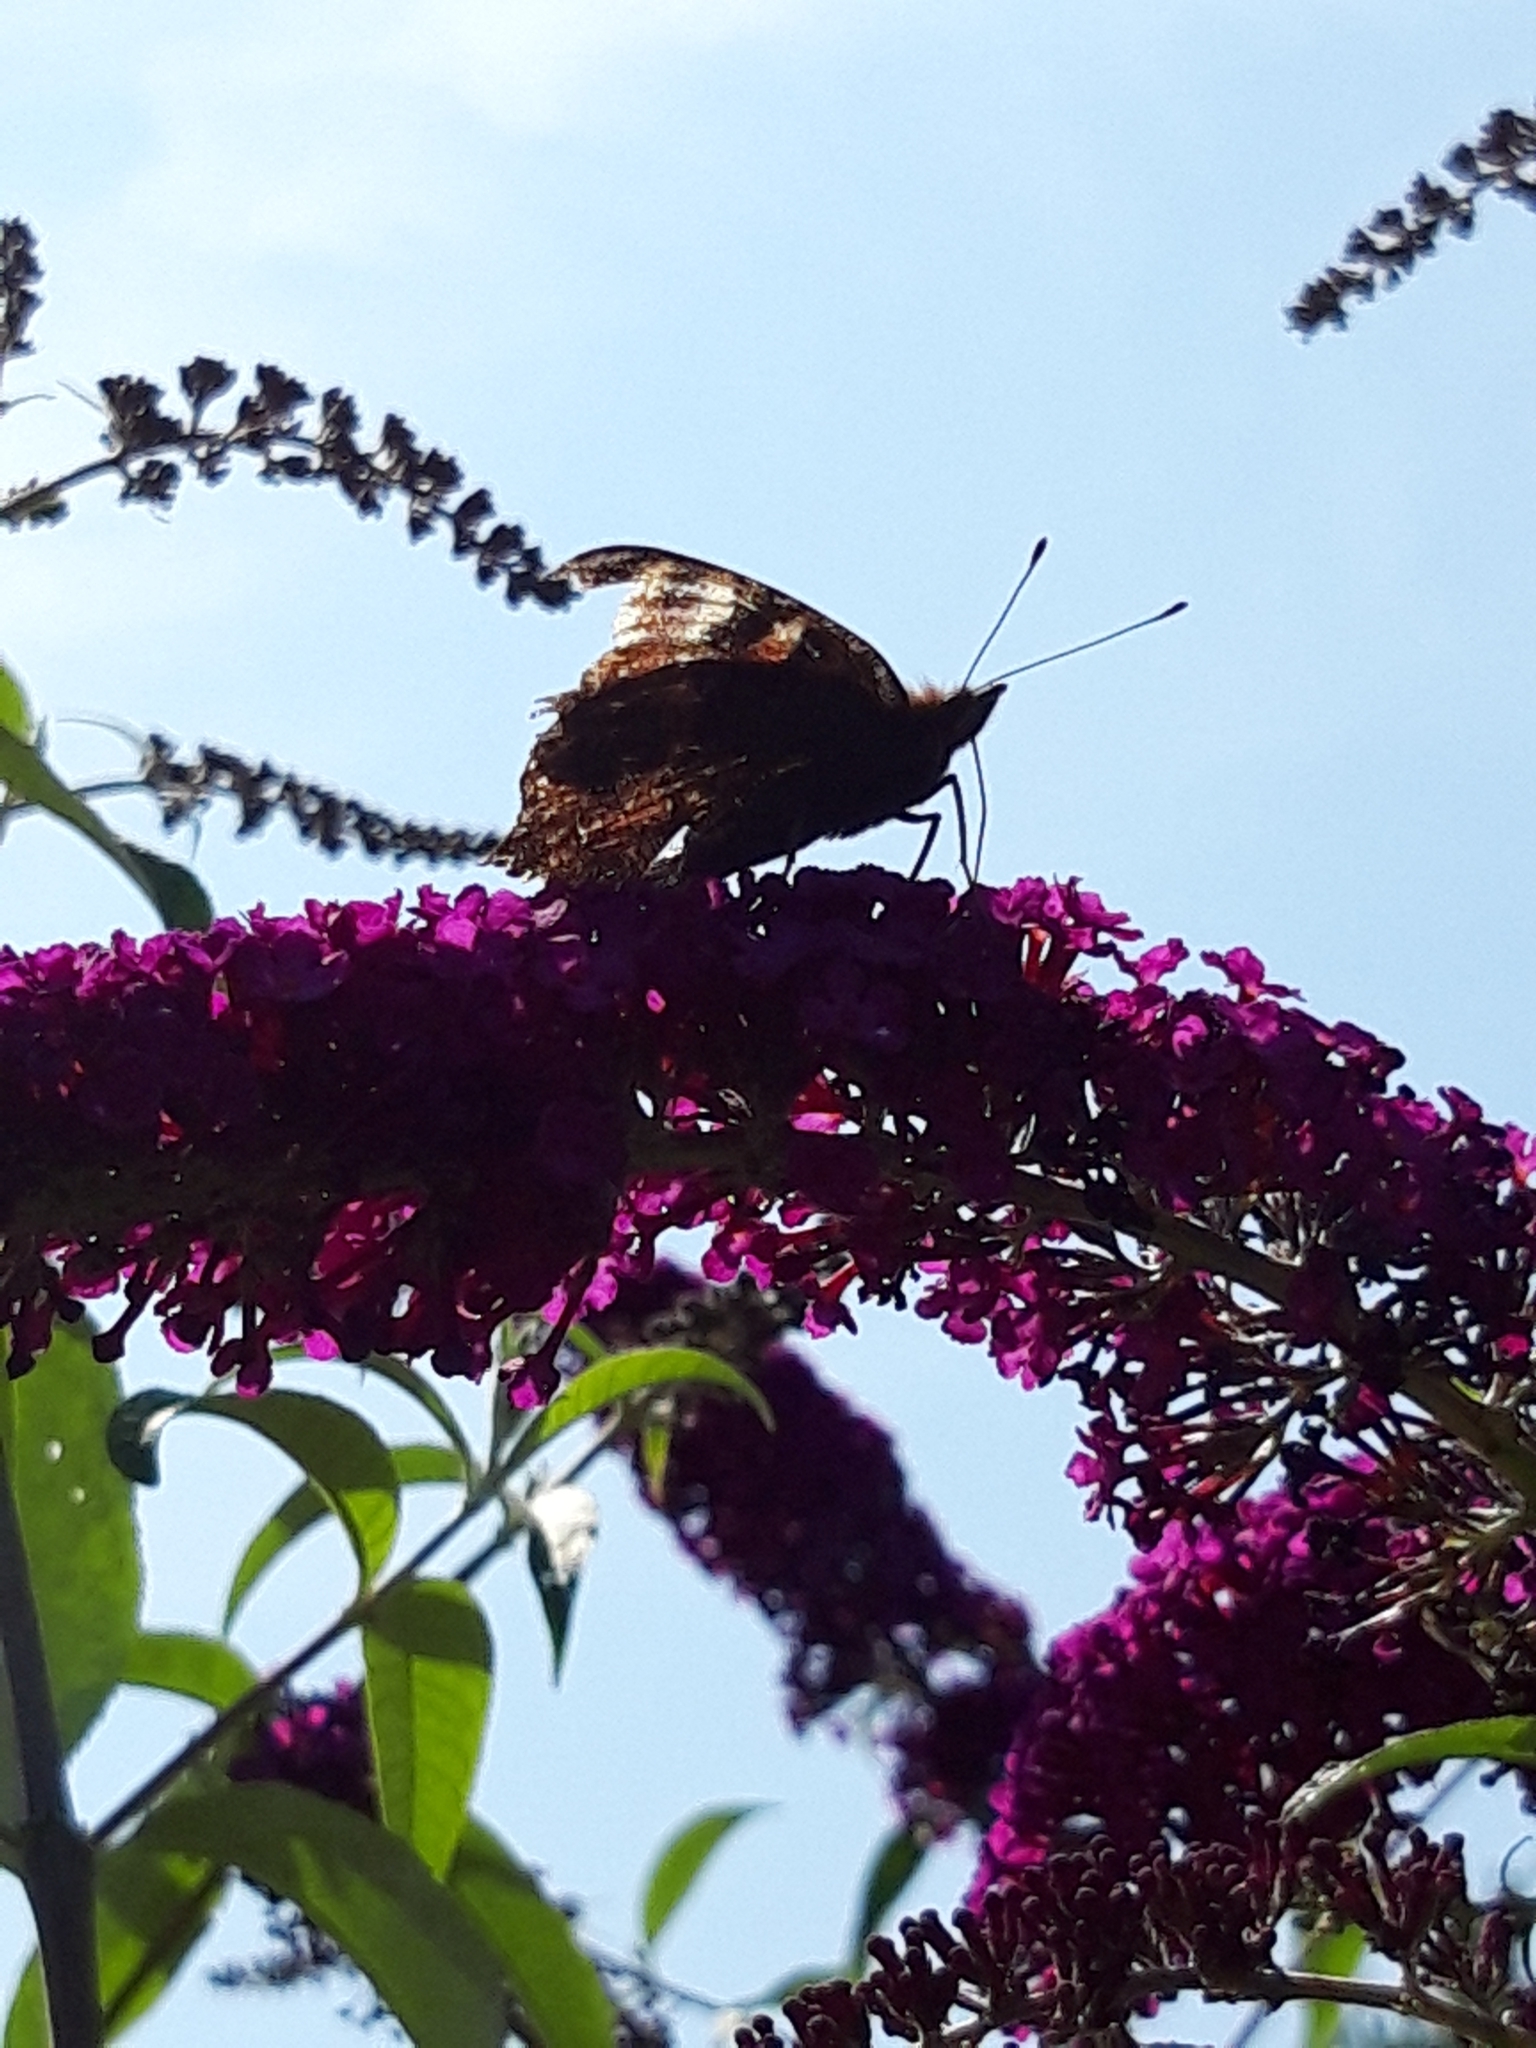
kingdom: Animalia
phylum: Arthropoda
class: Insecta
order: Lepidoptera
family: Nymphalidae
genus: Aglais
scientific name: Aglais io
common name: Peacock
